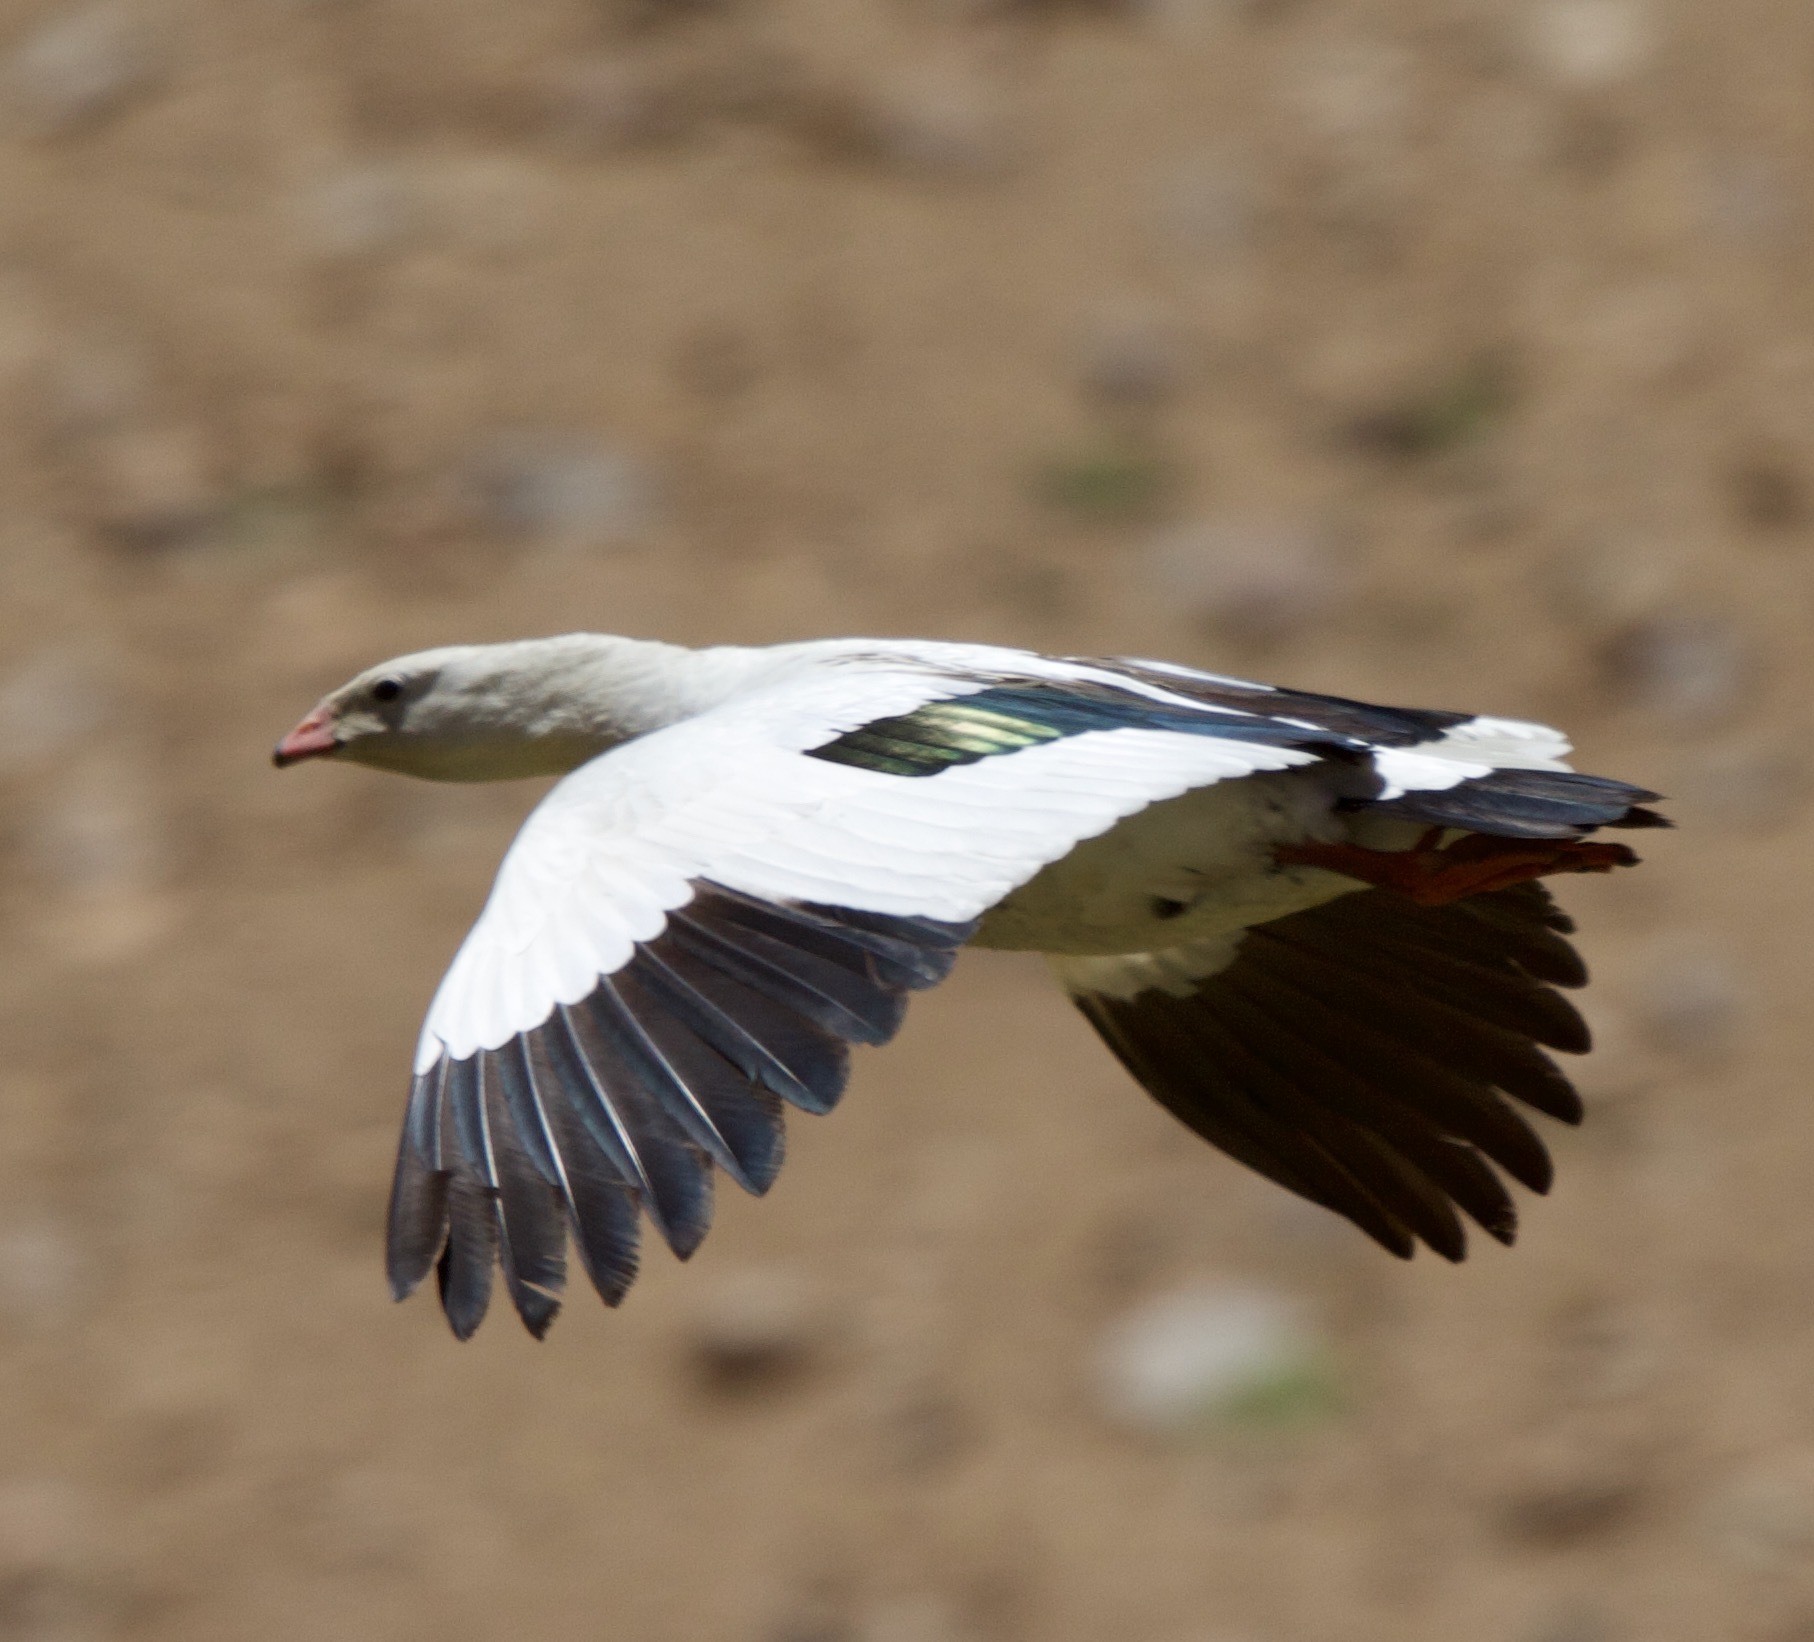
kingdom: Animalia
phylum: Chordata
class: Aves
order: Anseriformes
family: Anatidae
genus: Chloephaga
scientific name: Chloephaga melanoptera
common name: Andean goose
